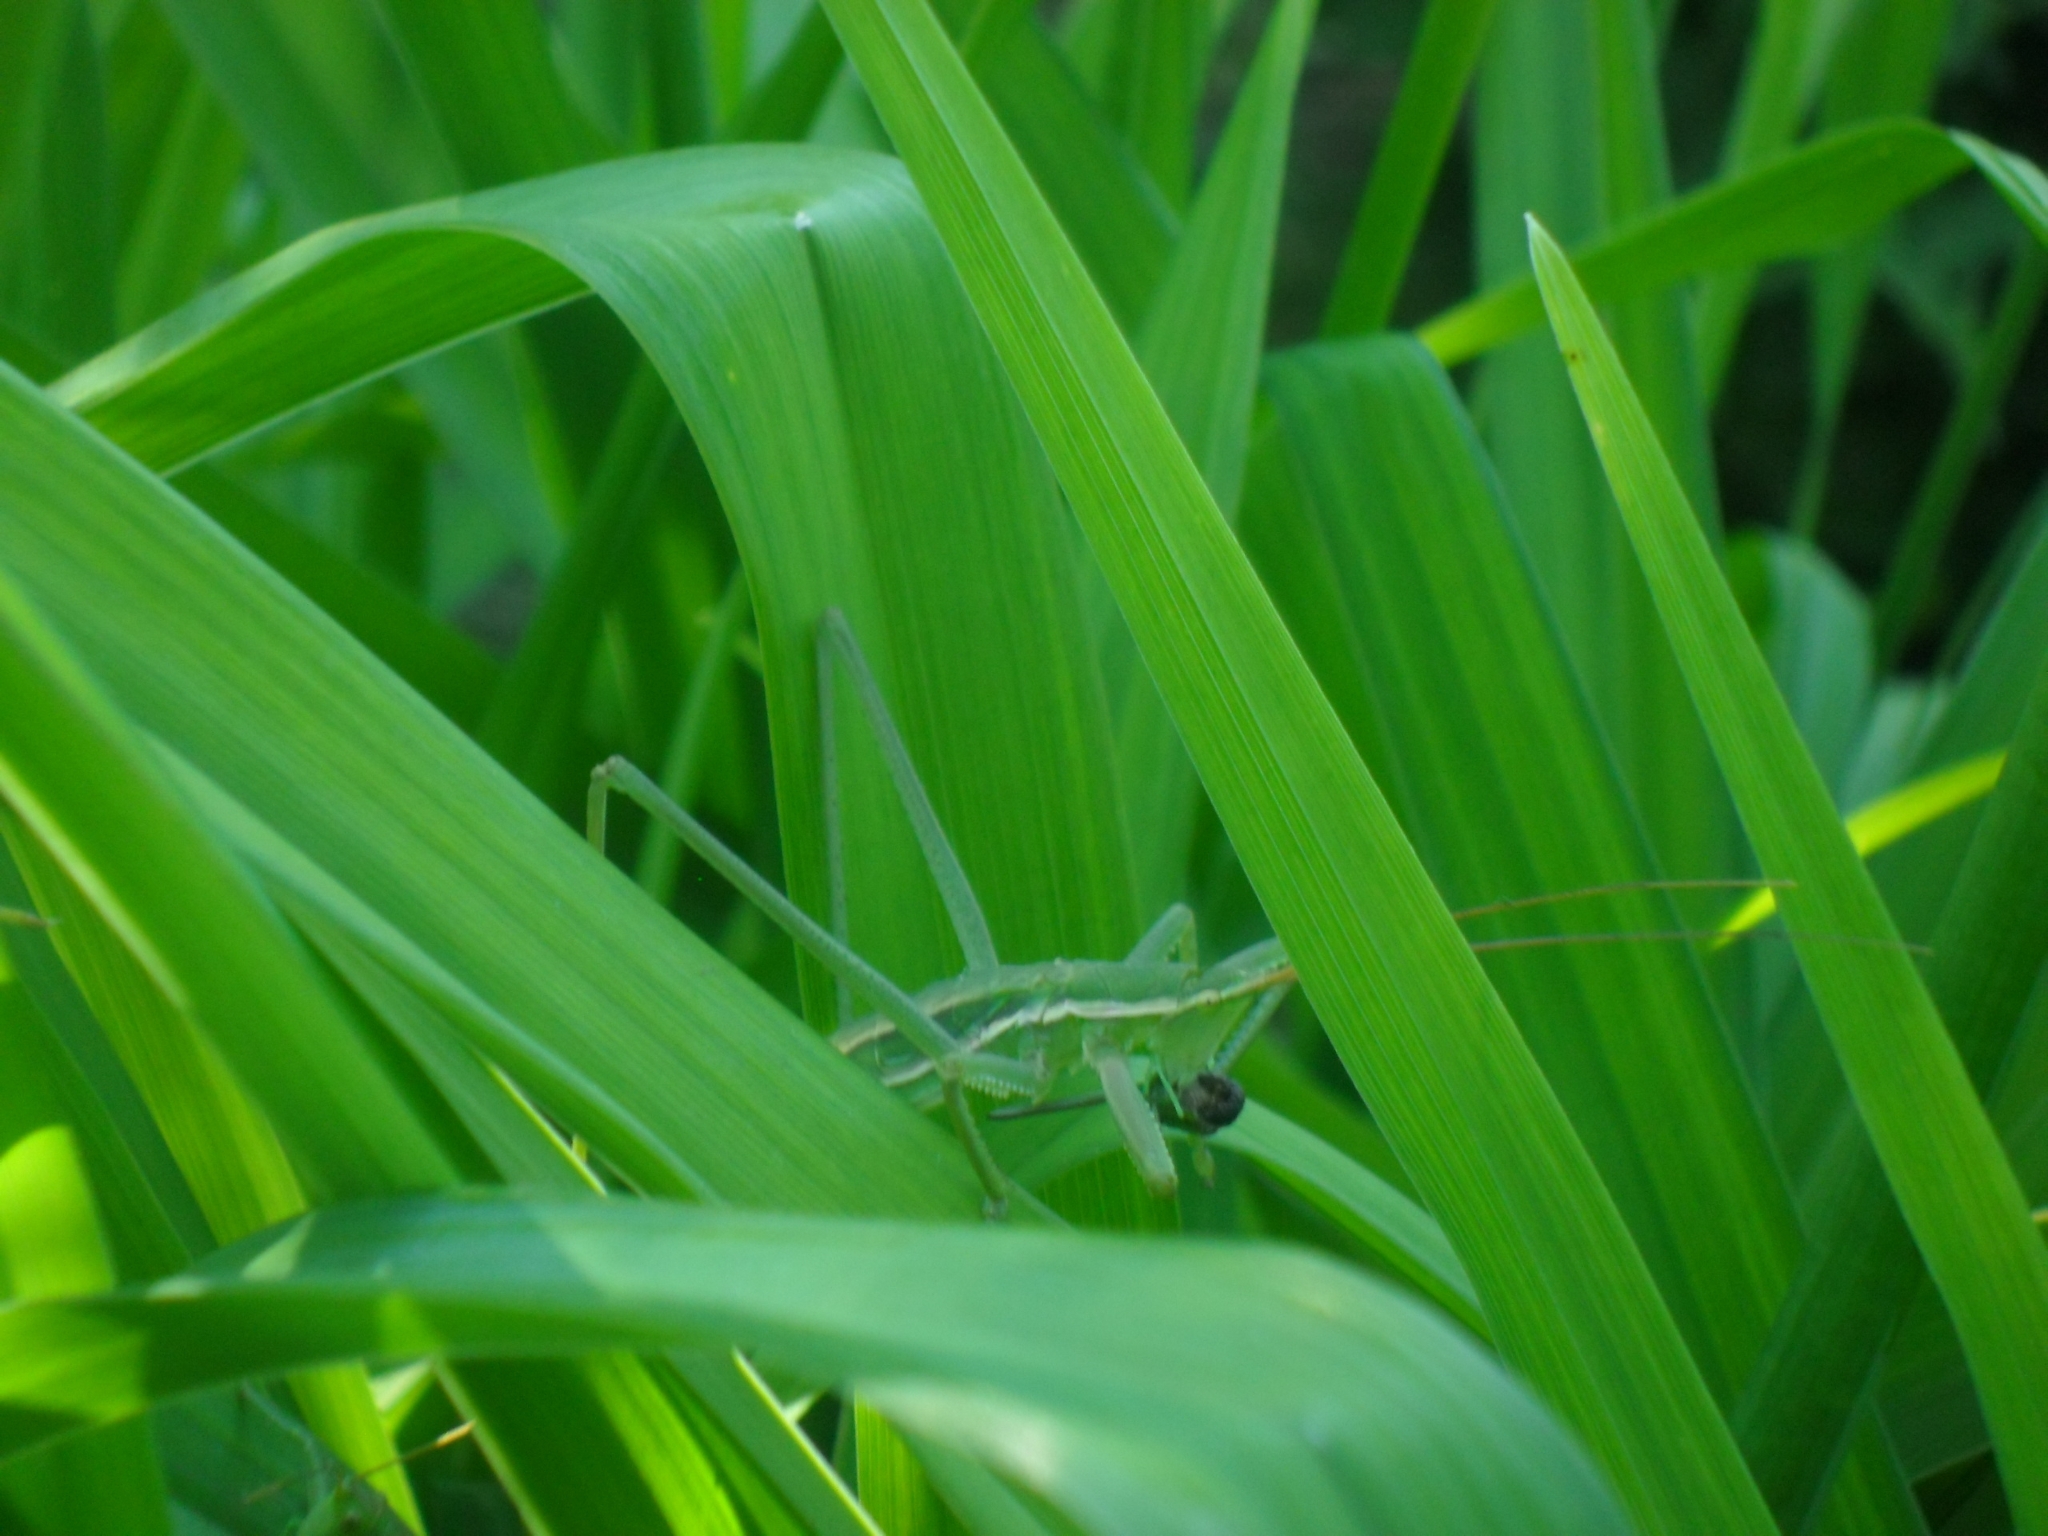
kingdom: Animalia
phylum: Arthropoda
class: Insecta
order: Orthoptera
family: Tettigoniidae
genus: Saga
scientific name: Saga pedo
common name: Common predatory bush-cricket
